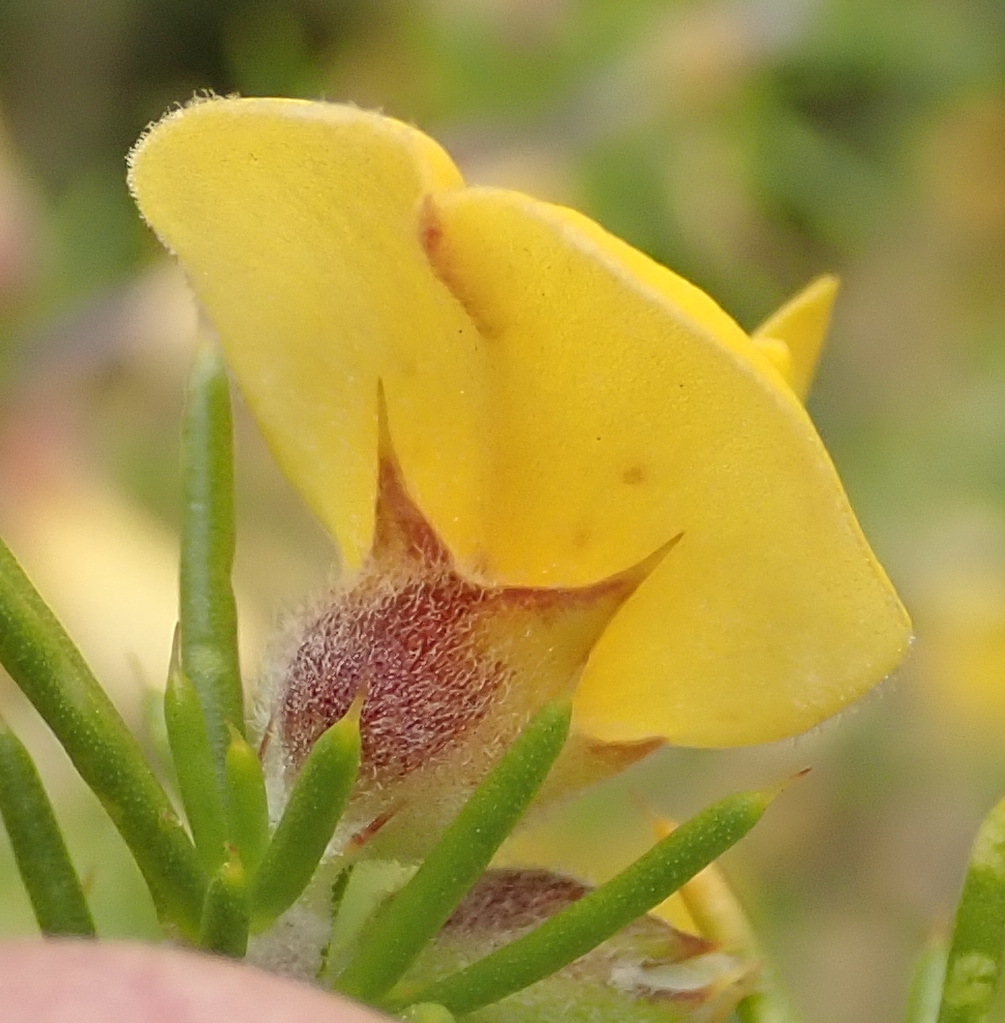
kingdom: Plantae
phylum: Tracheophyta
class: Magnoliopsida
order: Fabales
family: Fabaceae
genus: Aspalathus
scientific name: Aspalathus hirta
